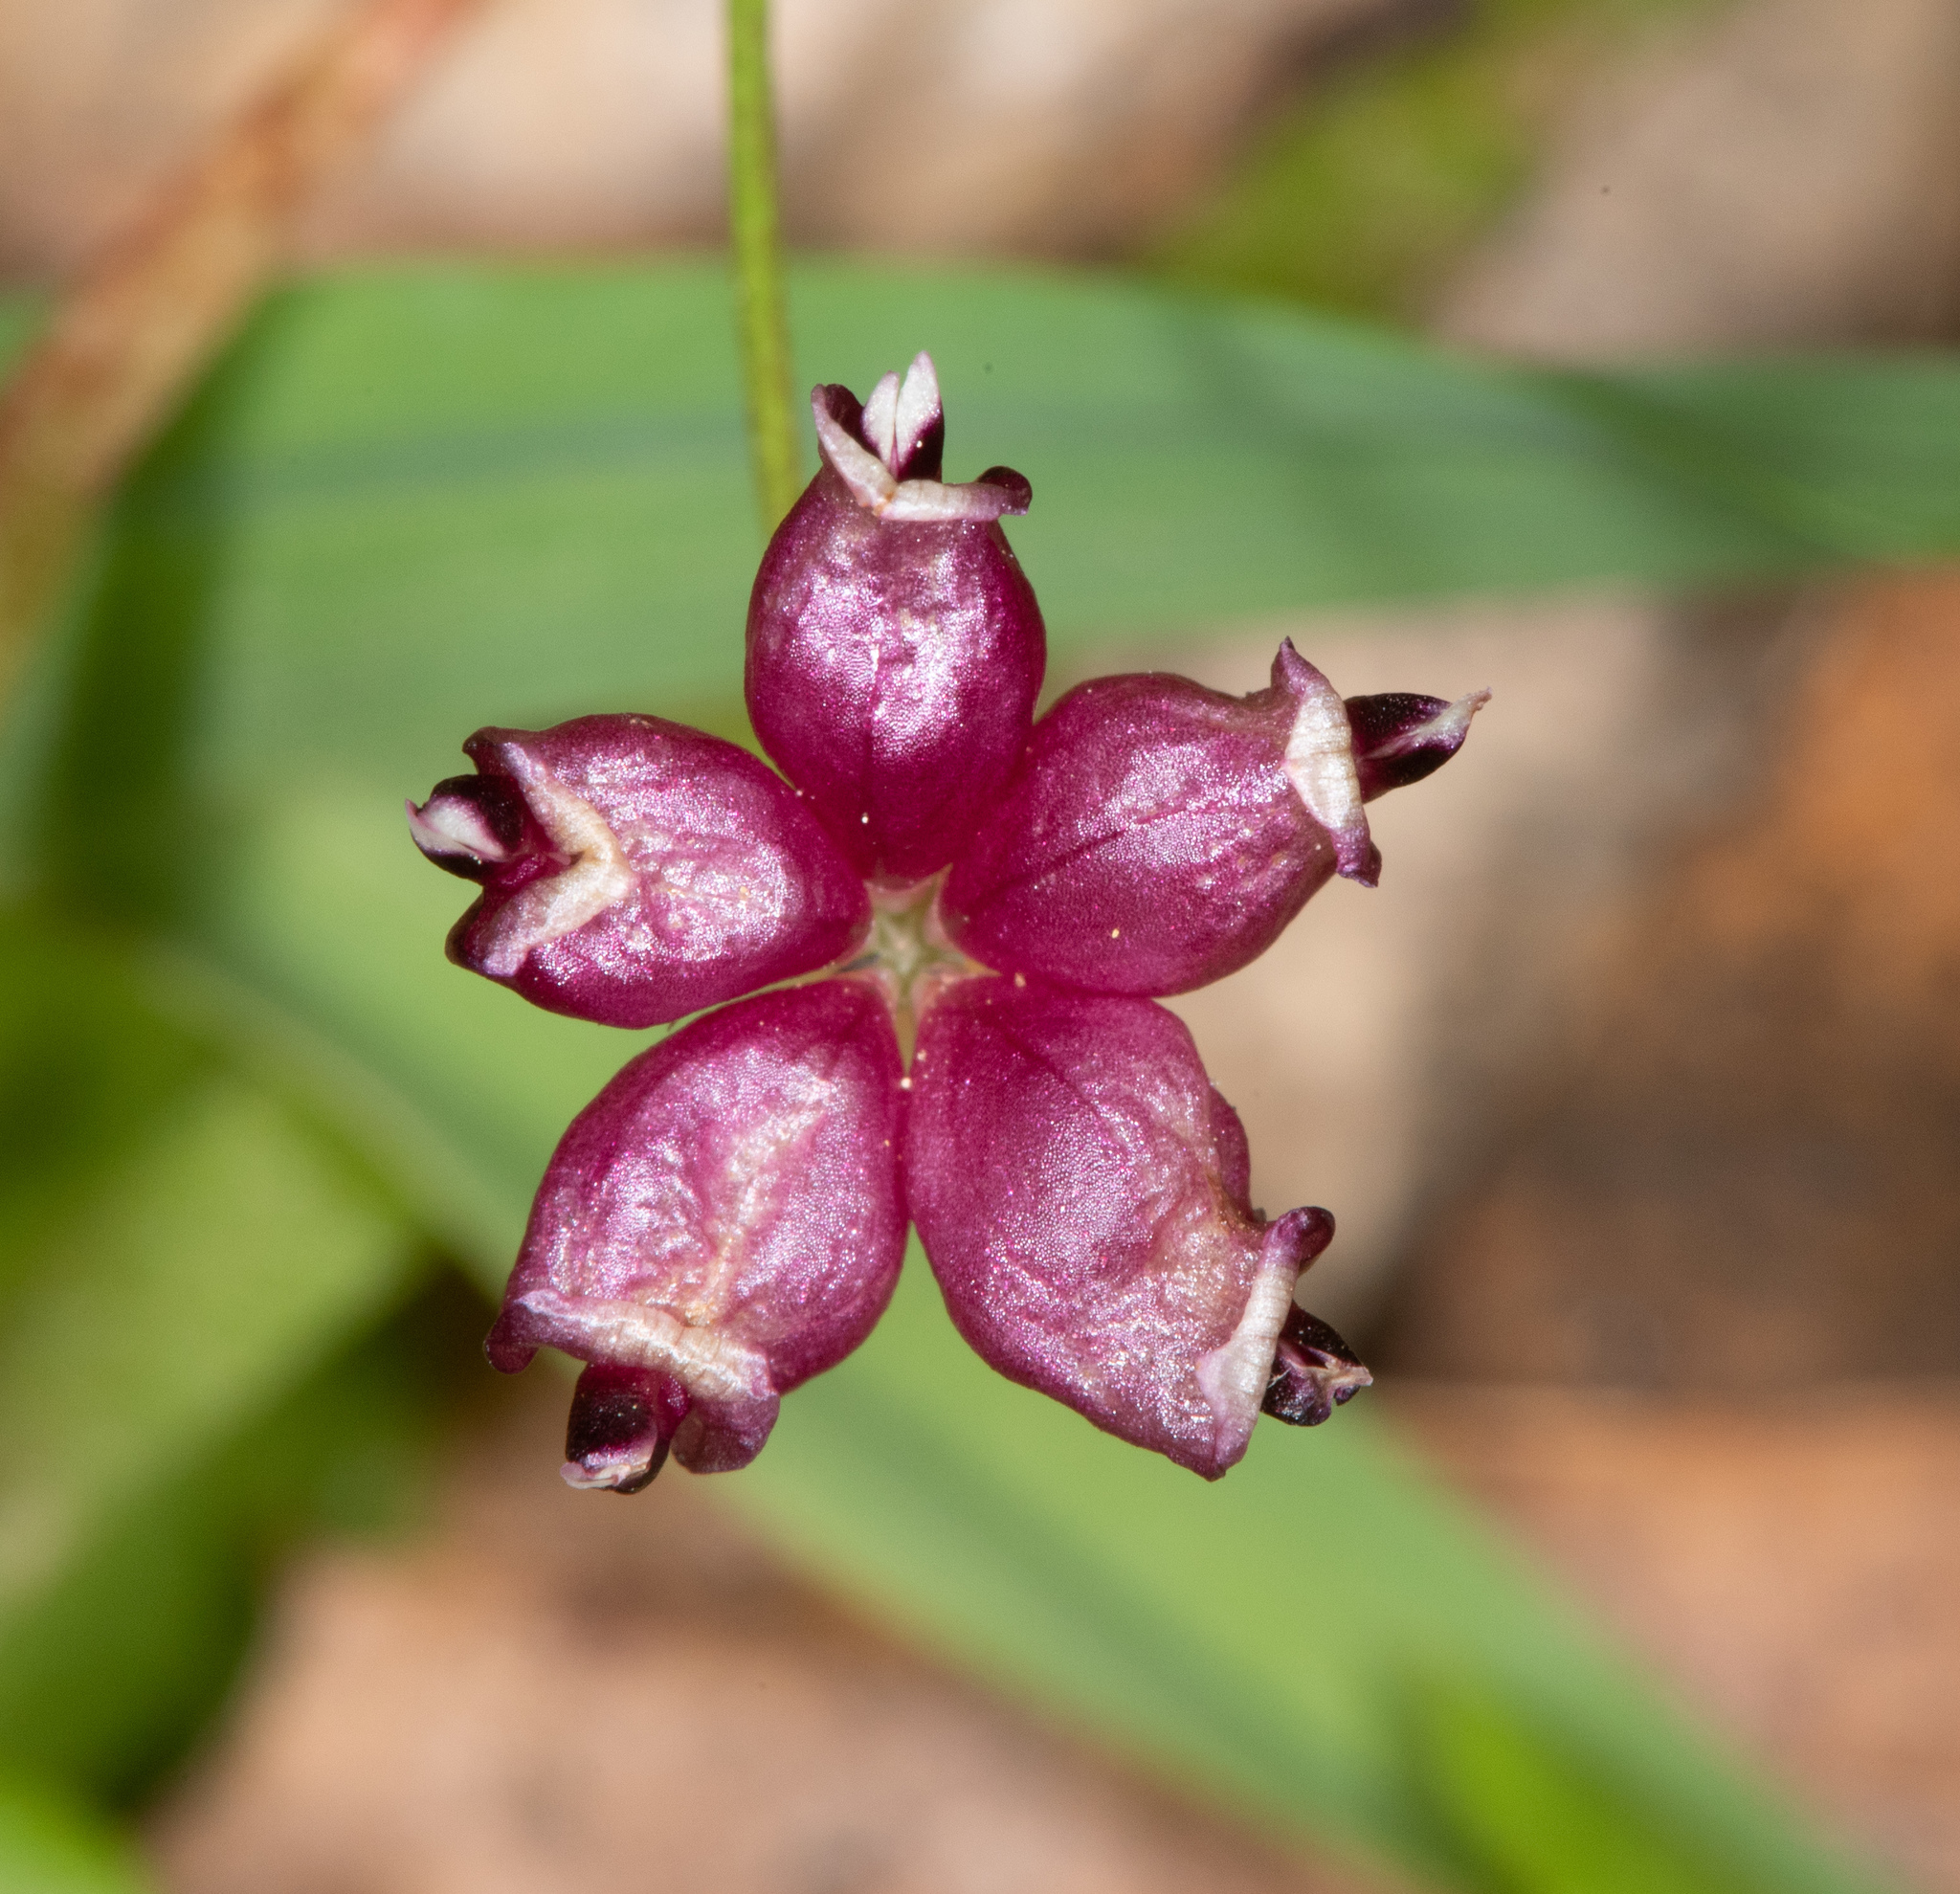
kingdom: Plantae
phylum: Tracheophyta
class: Magnoliopsida
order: Fabales
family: Fabaceae
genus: Trifolium
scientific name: Trifolium depauperatum
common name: Poverty clover
